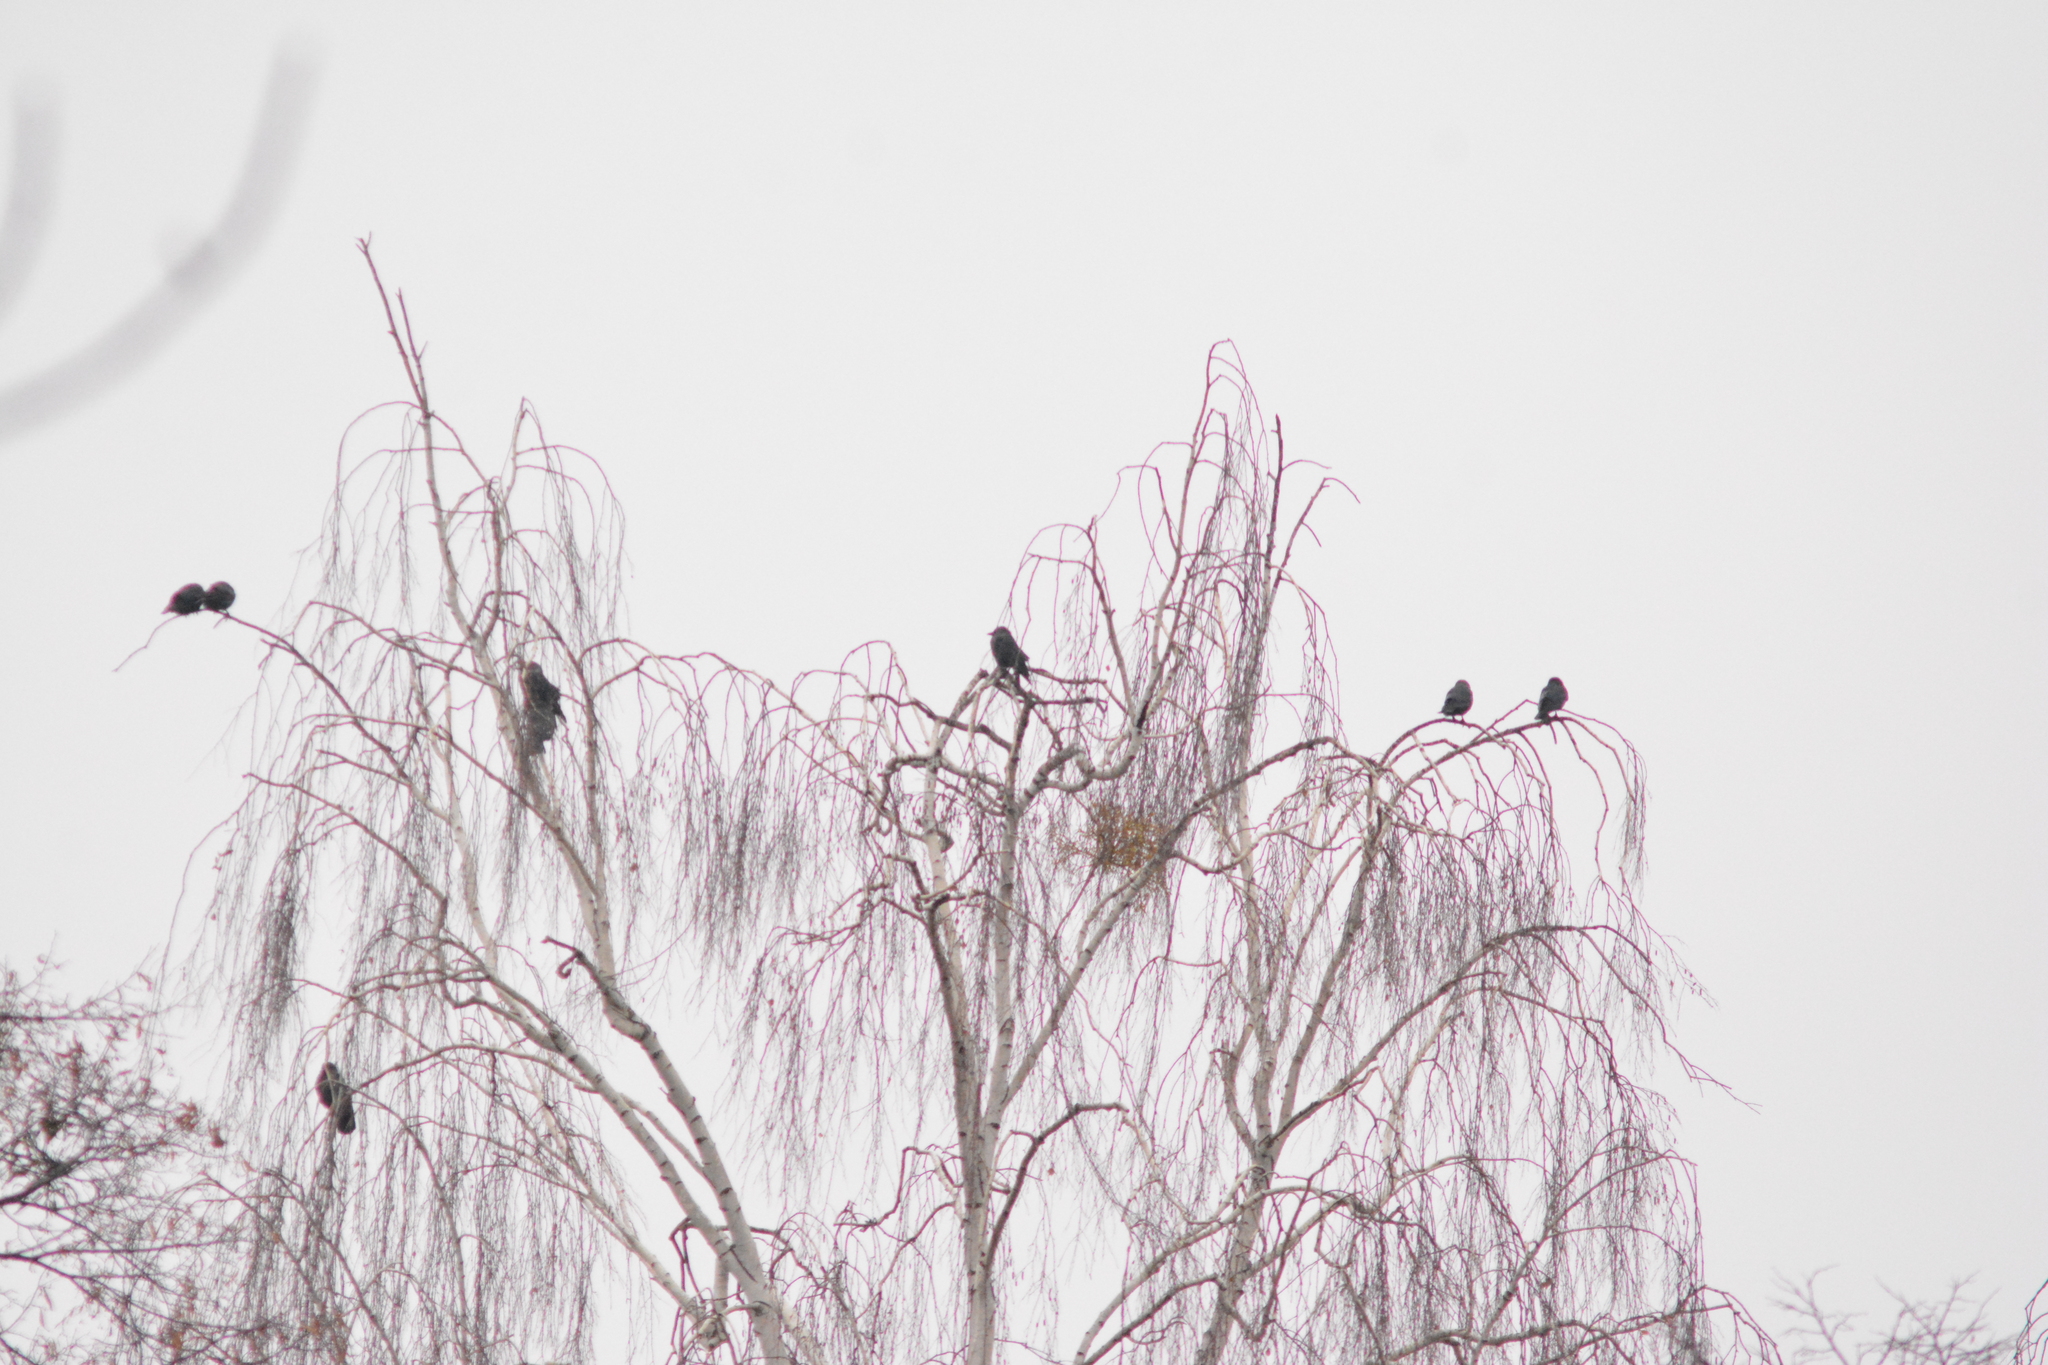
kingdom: Animalia
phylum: Chordata
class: Aves
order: Passeriformes
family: Corvidae
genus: Coloeus
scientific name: Coloeus monedula
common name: Western jackdaw
